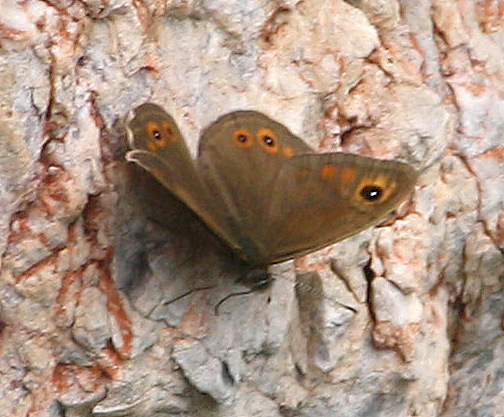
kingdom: Animalia
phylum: Arthropoda
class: Insecta
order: Lepidoptera
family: Nymphalidae
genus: Pararge
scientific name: Pararge Lasiommata maera
